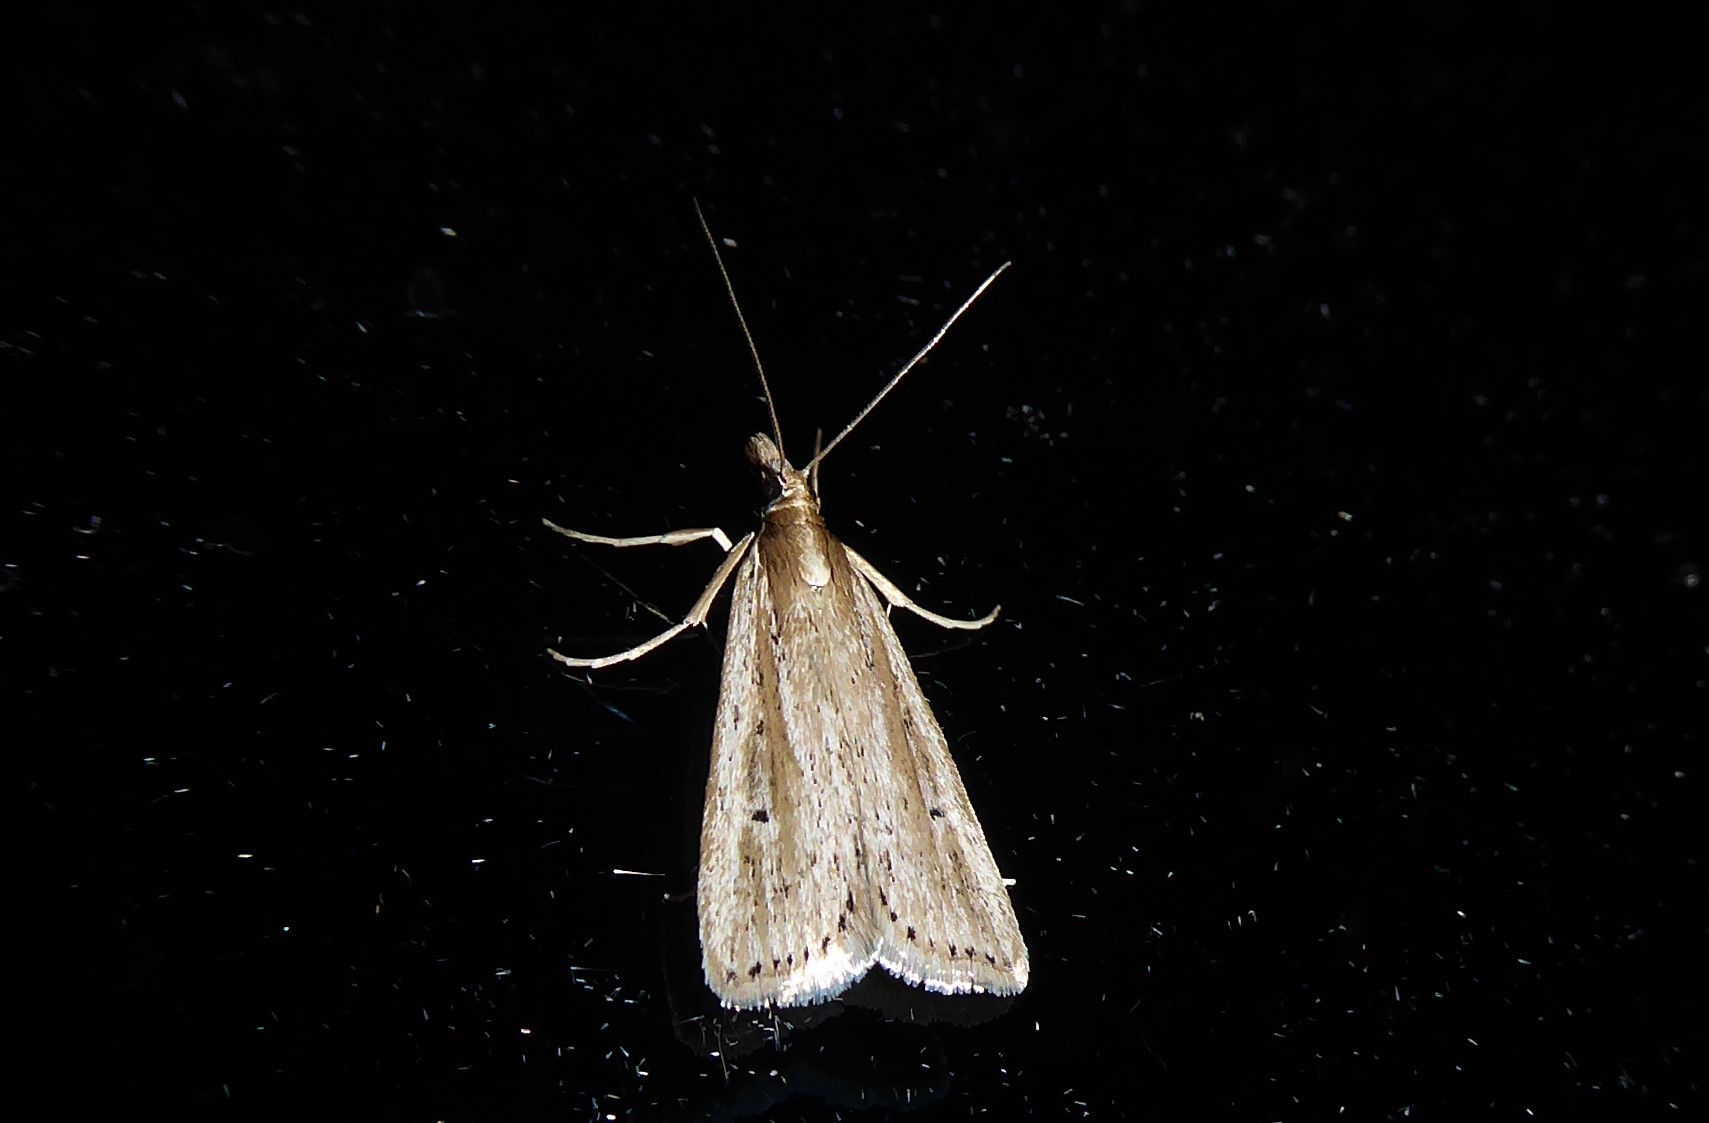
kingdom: Animalia
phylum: Arthropoda
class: Insecta
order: Lepidoptera
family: Crambidae
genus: Eudonia
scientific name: Eudonia sabulosella
